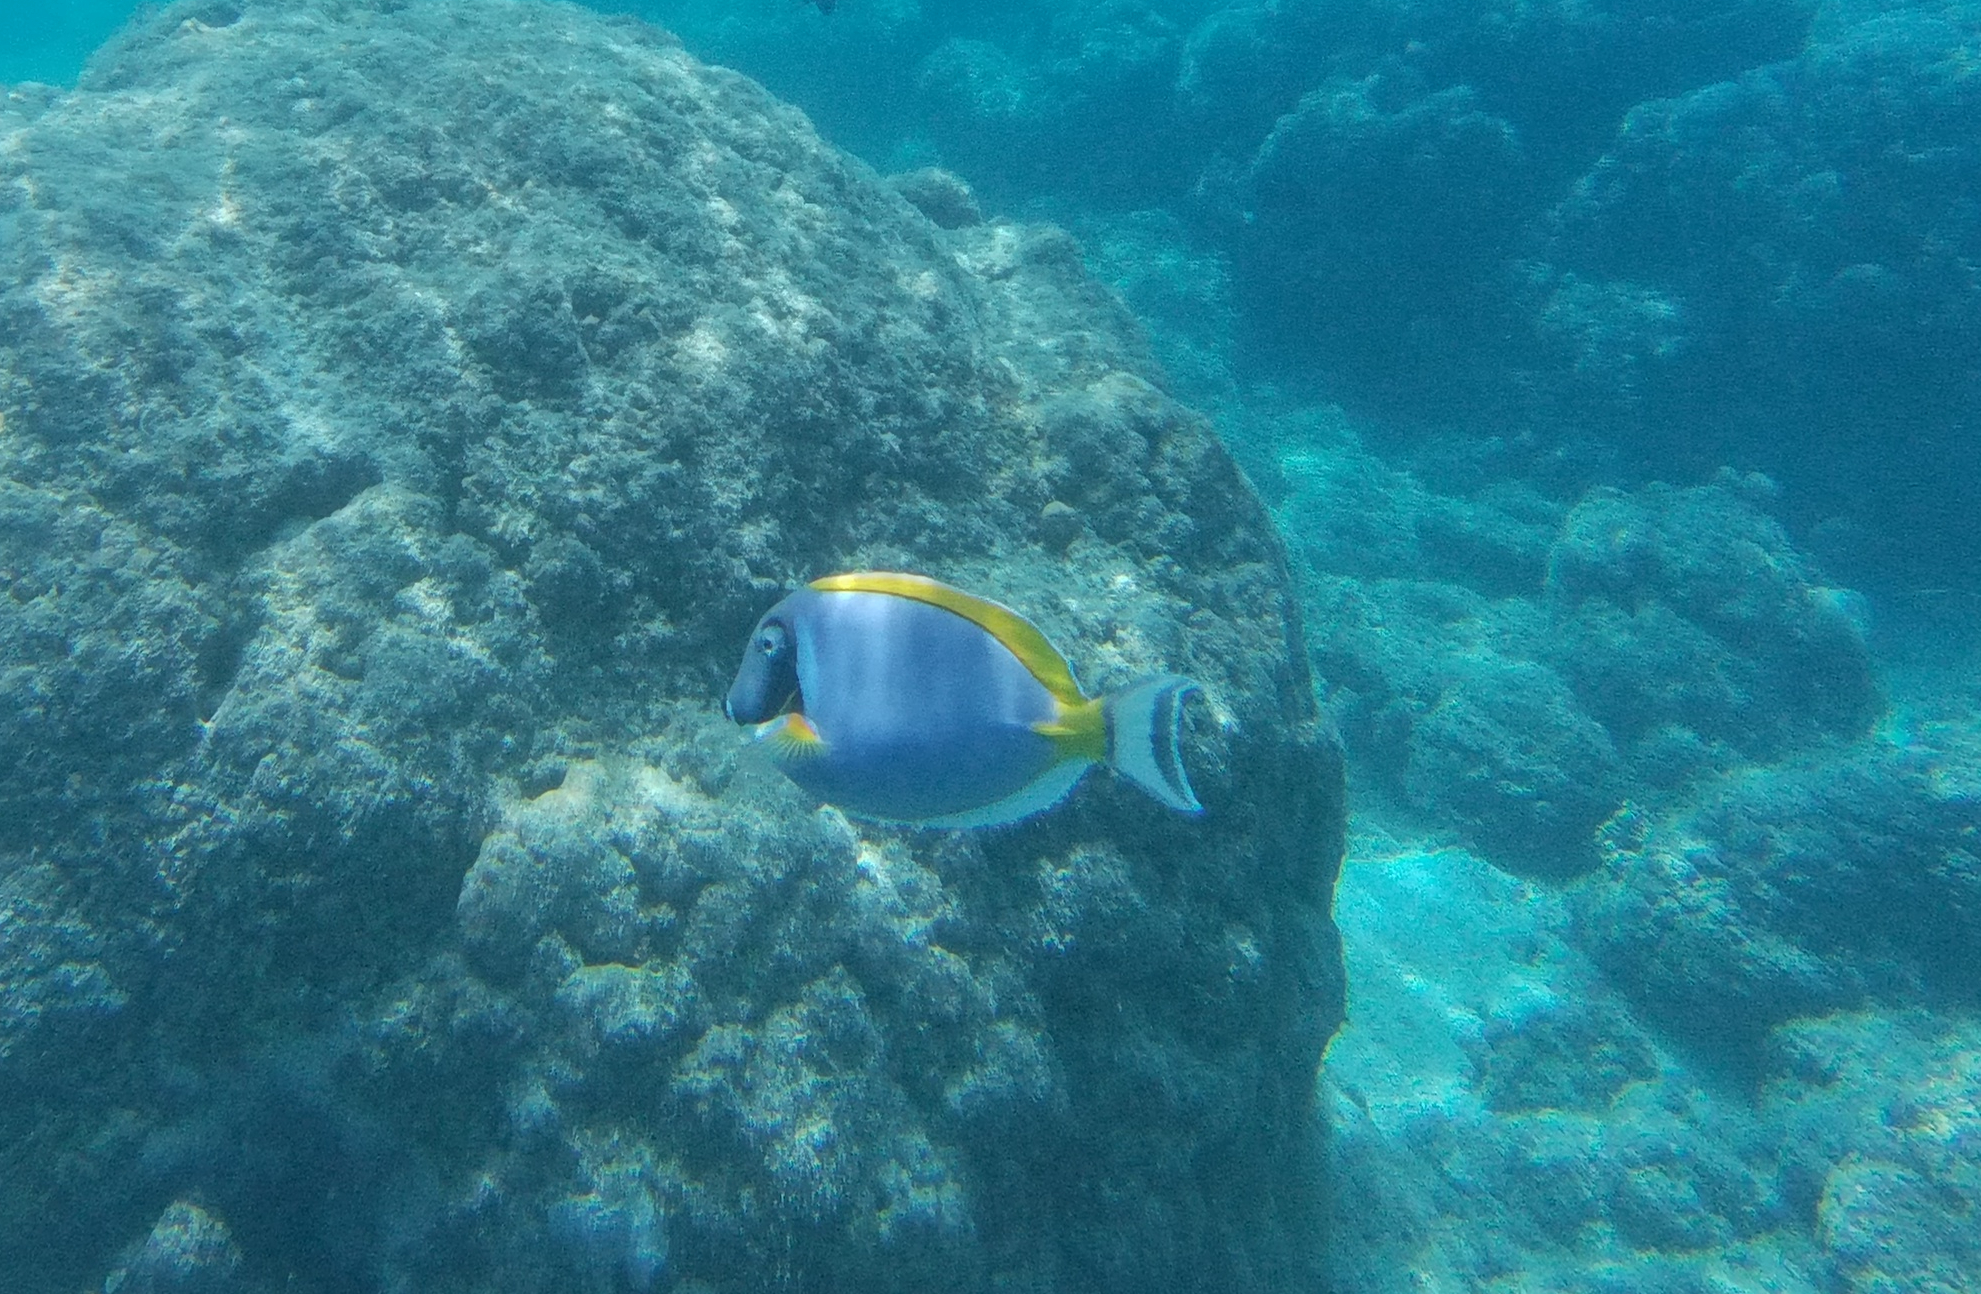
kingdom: Animalia
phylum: Chordata
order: Perciformes
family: Acanthuridae
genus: Acanthurus
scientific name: Acanthurus leucosternon
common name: Blue surgeonfish
